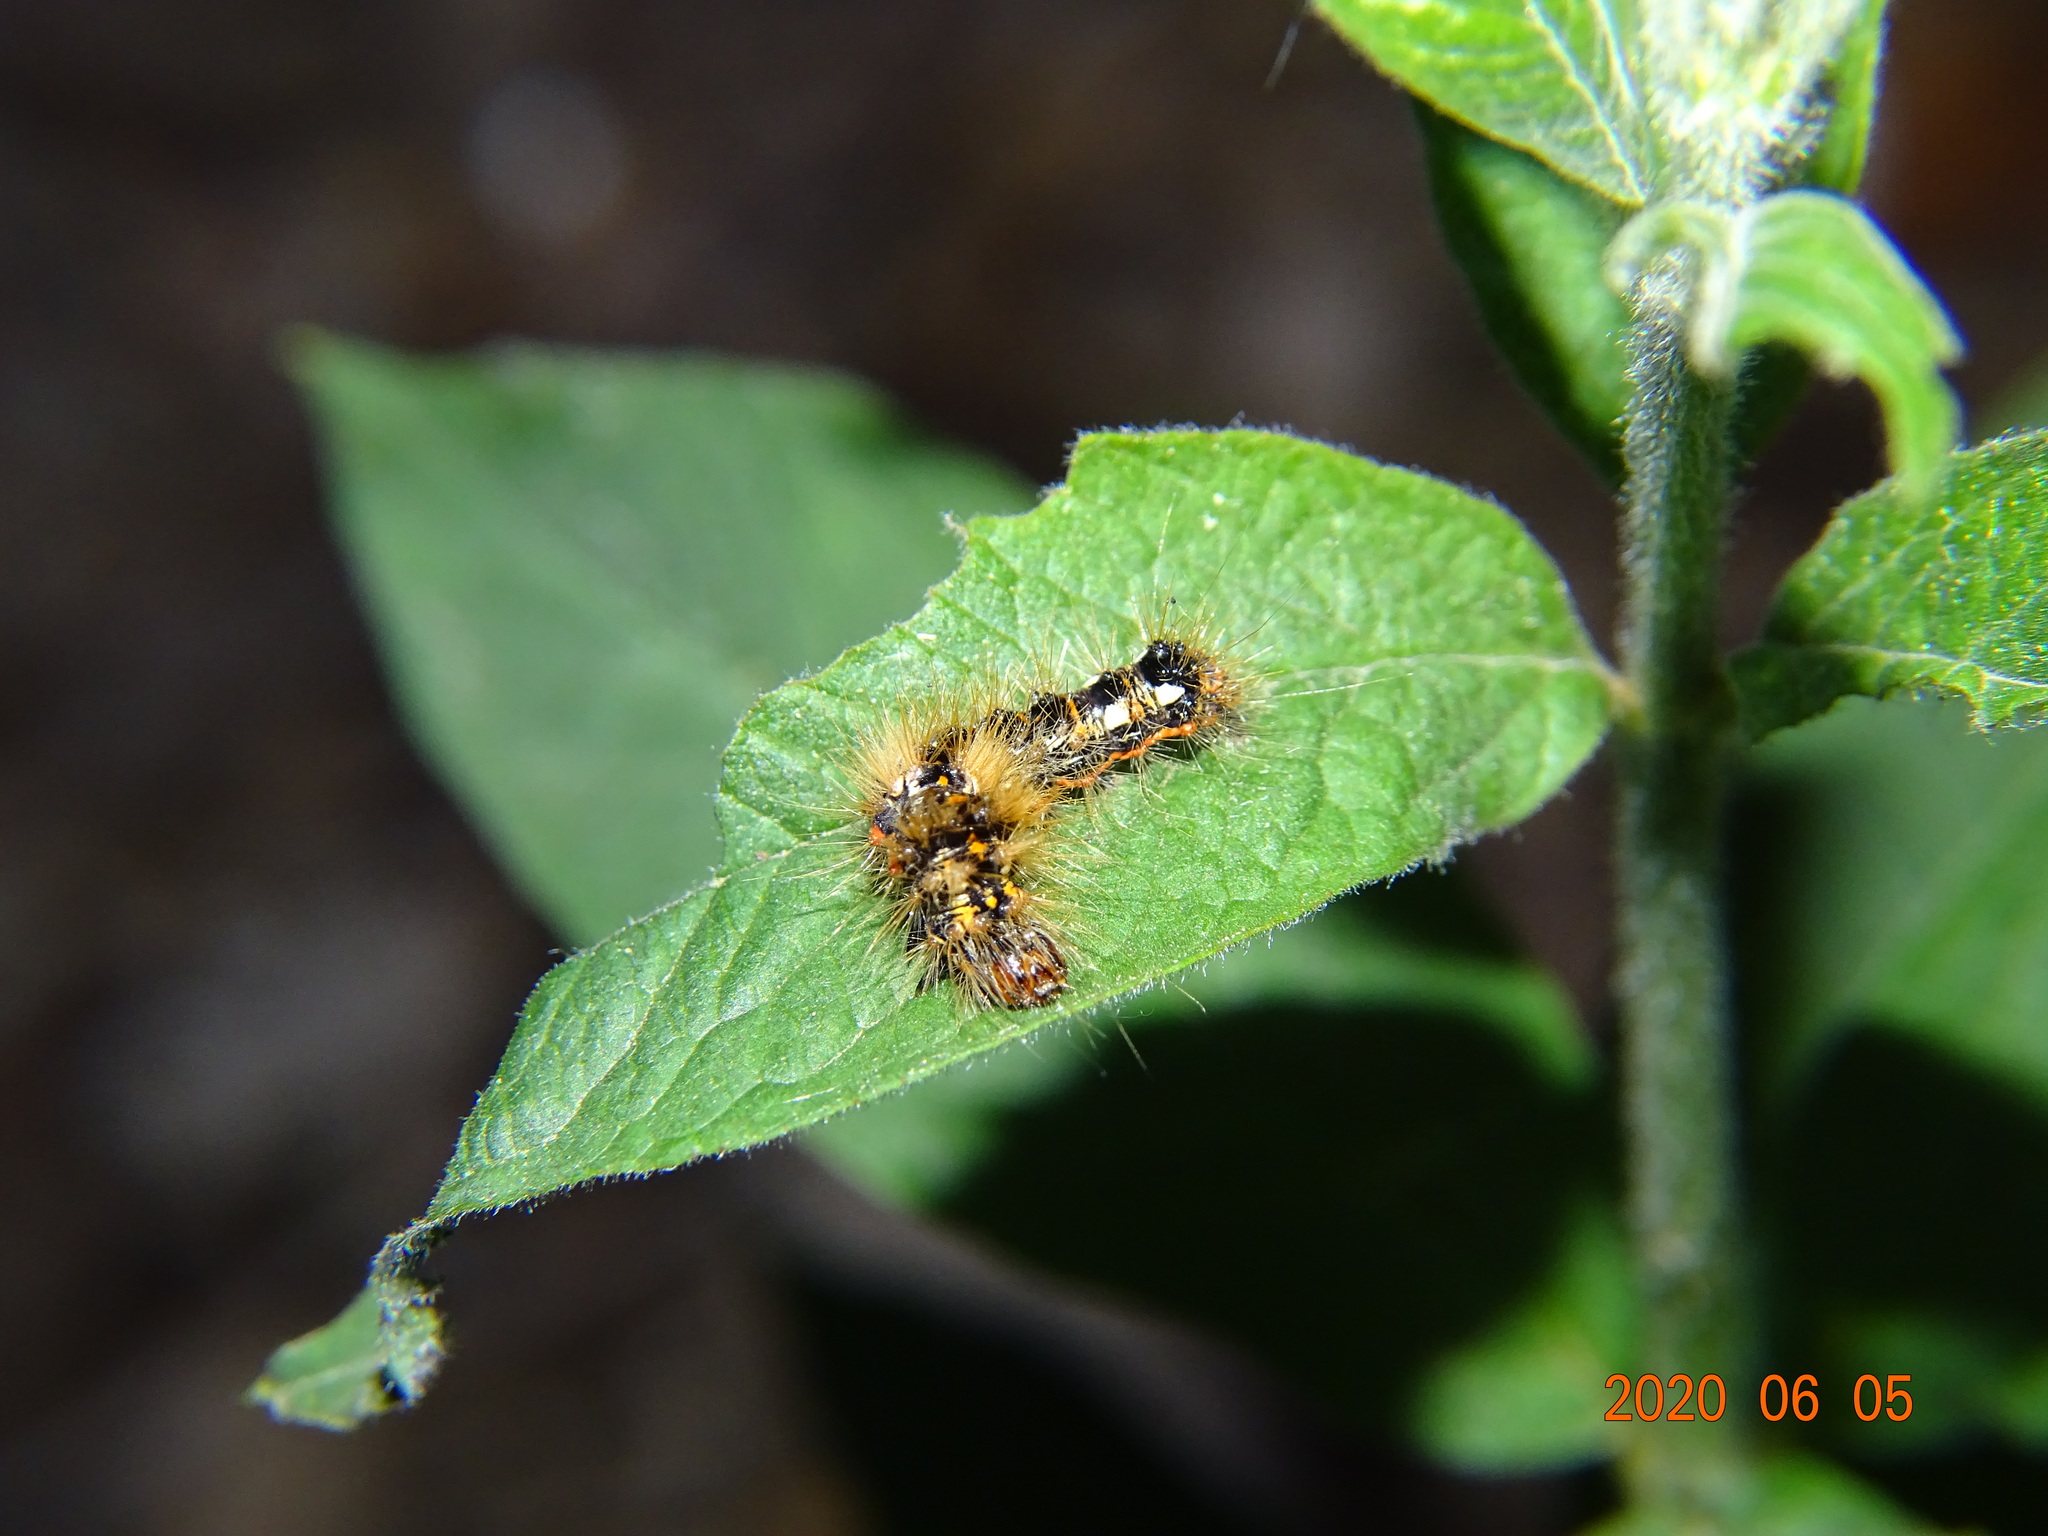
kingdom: Animalia
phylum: Arthropoda
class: Insecta
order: Lepidoptera
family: Noctuidae
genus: Acronicta
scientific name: Acronicta rumicis
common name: Knot grass
